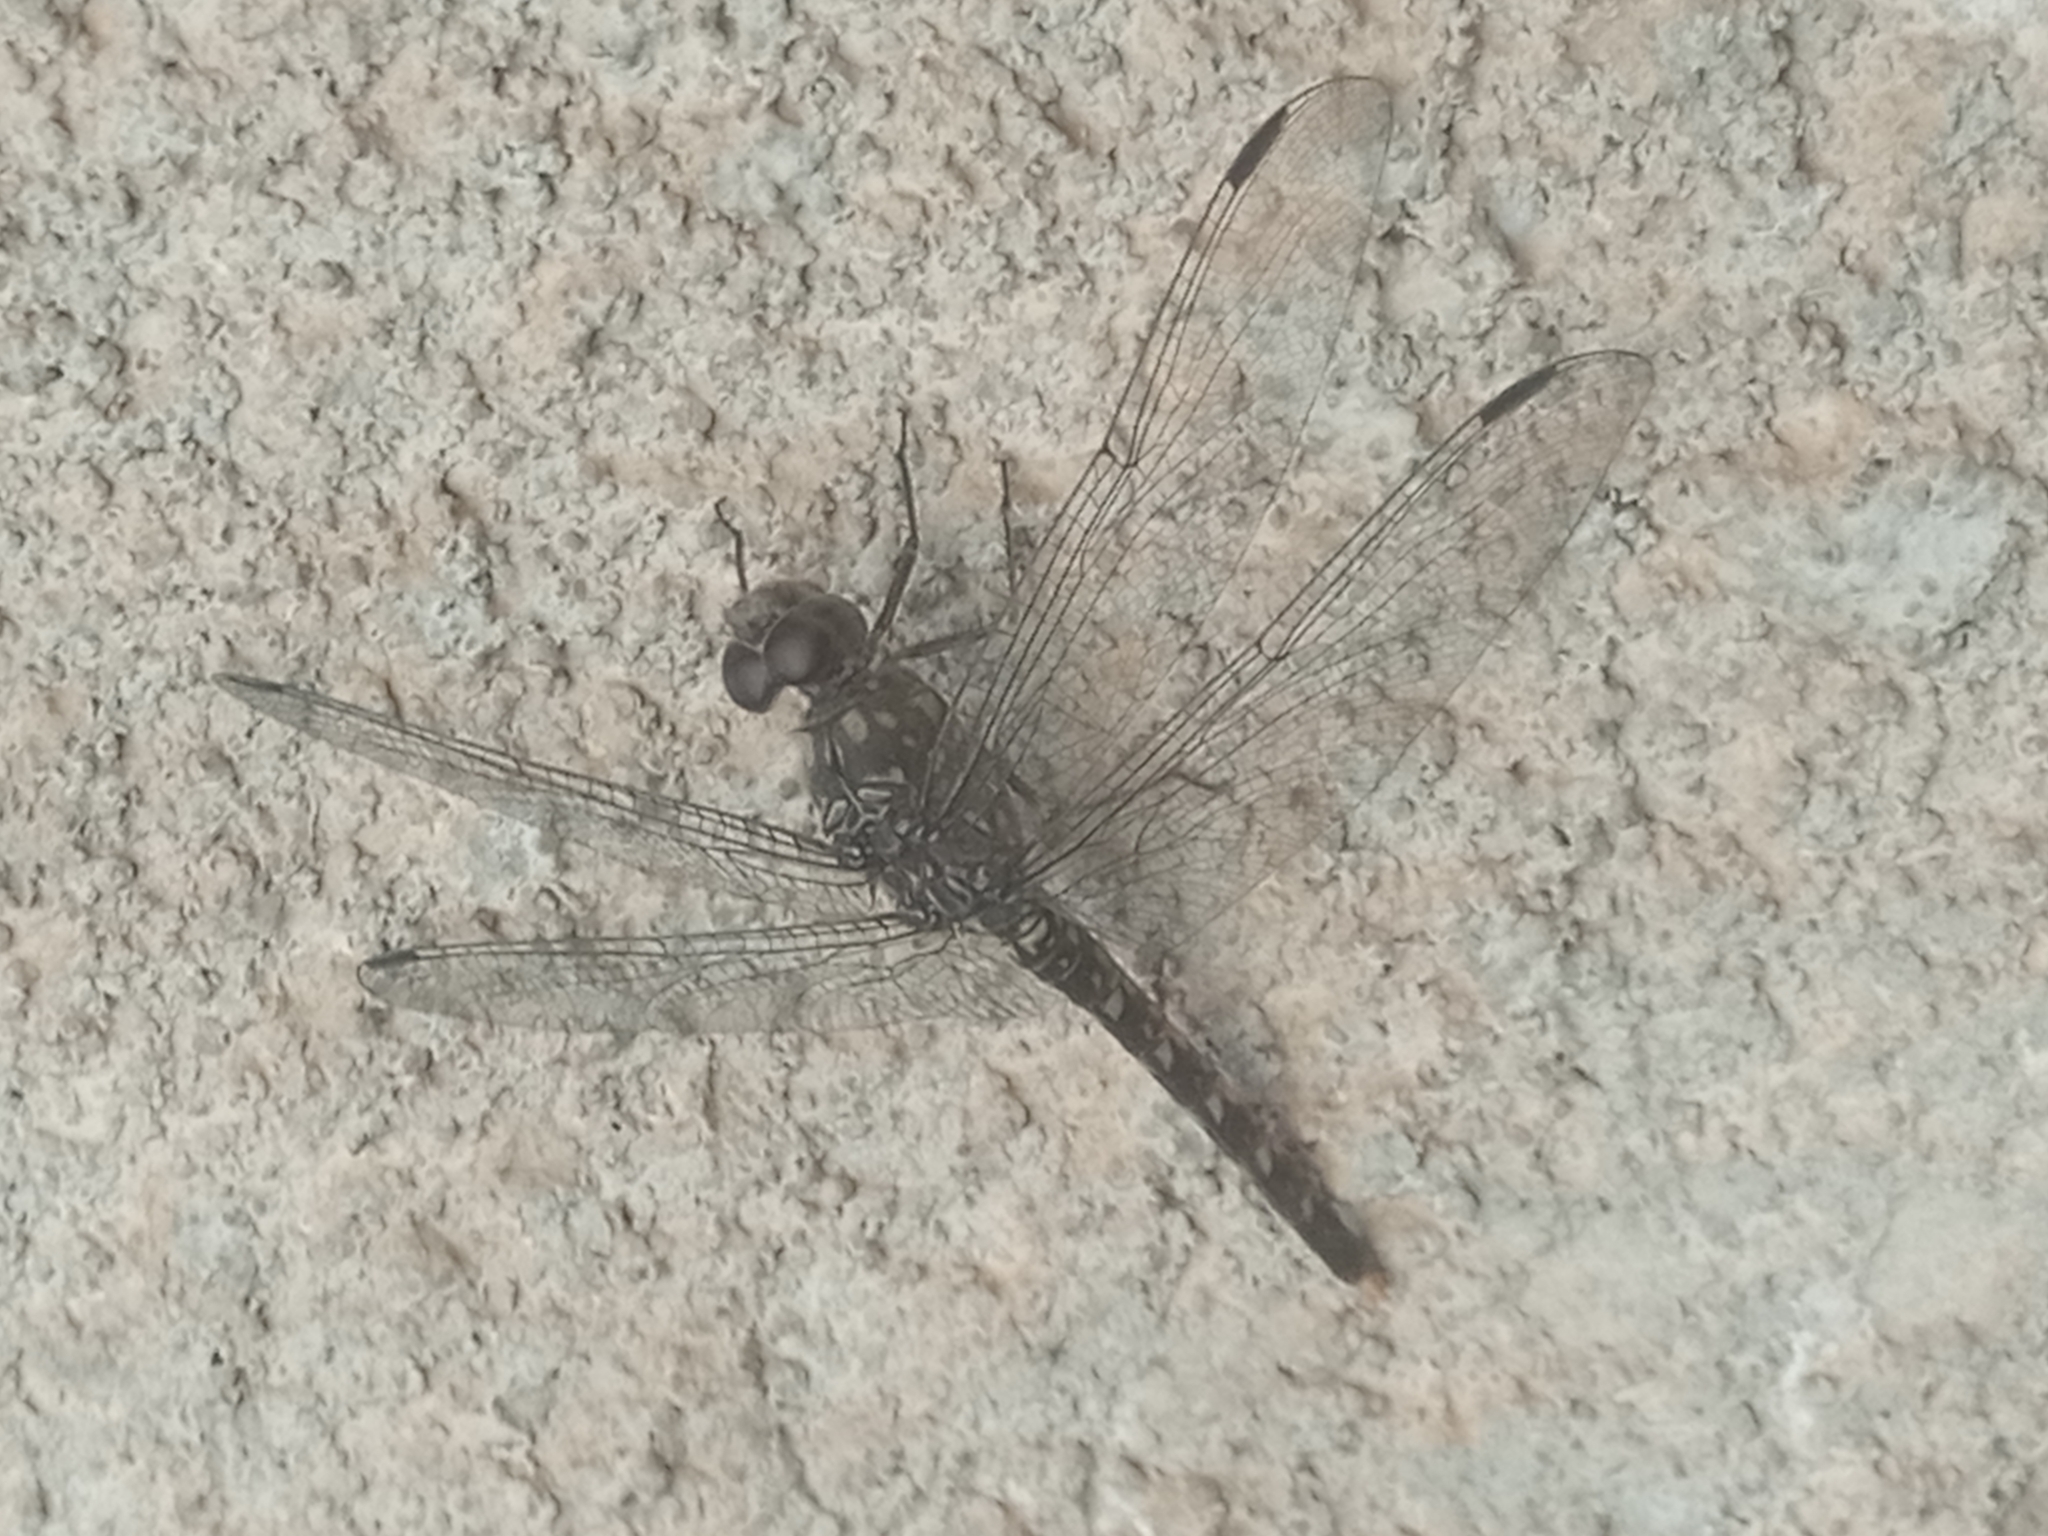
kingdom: Animalia
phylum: Arthropoda
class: Insecta
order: Odonata
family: Libellulidae
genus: Bradinopyga
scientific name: Bradinopyga strachani
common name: Red rock-dweller
